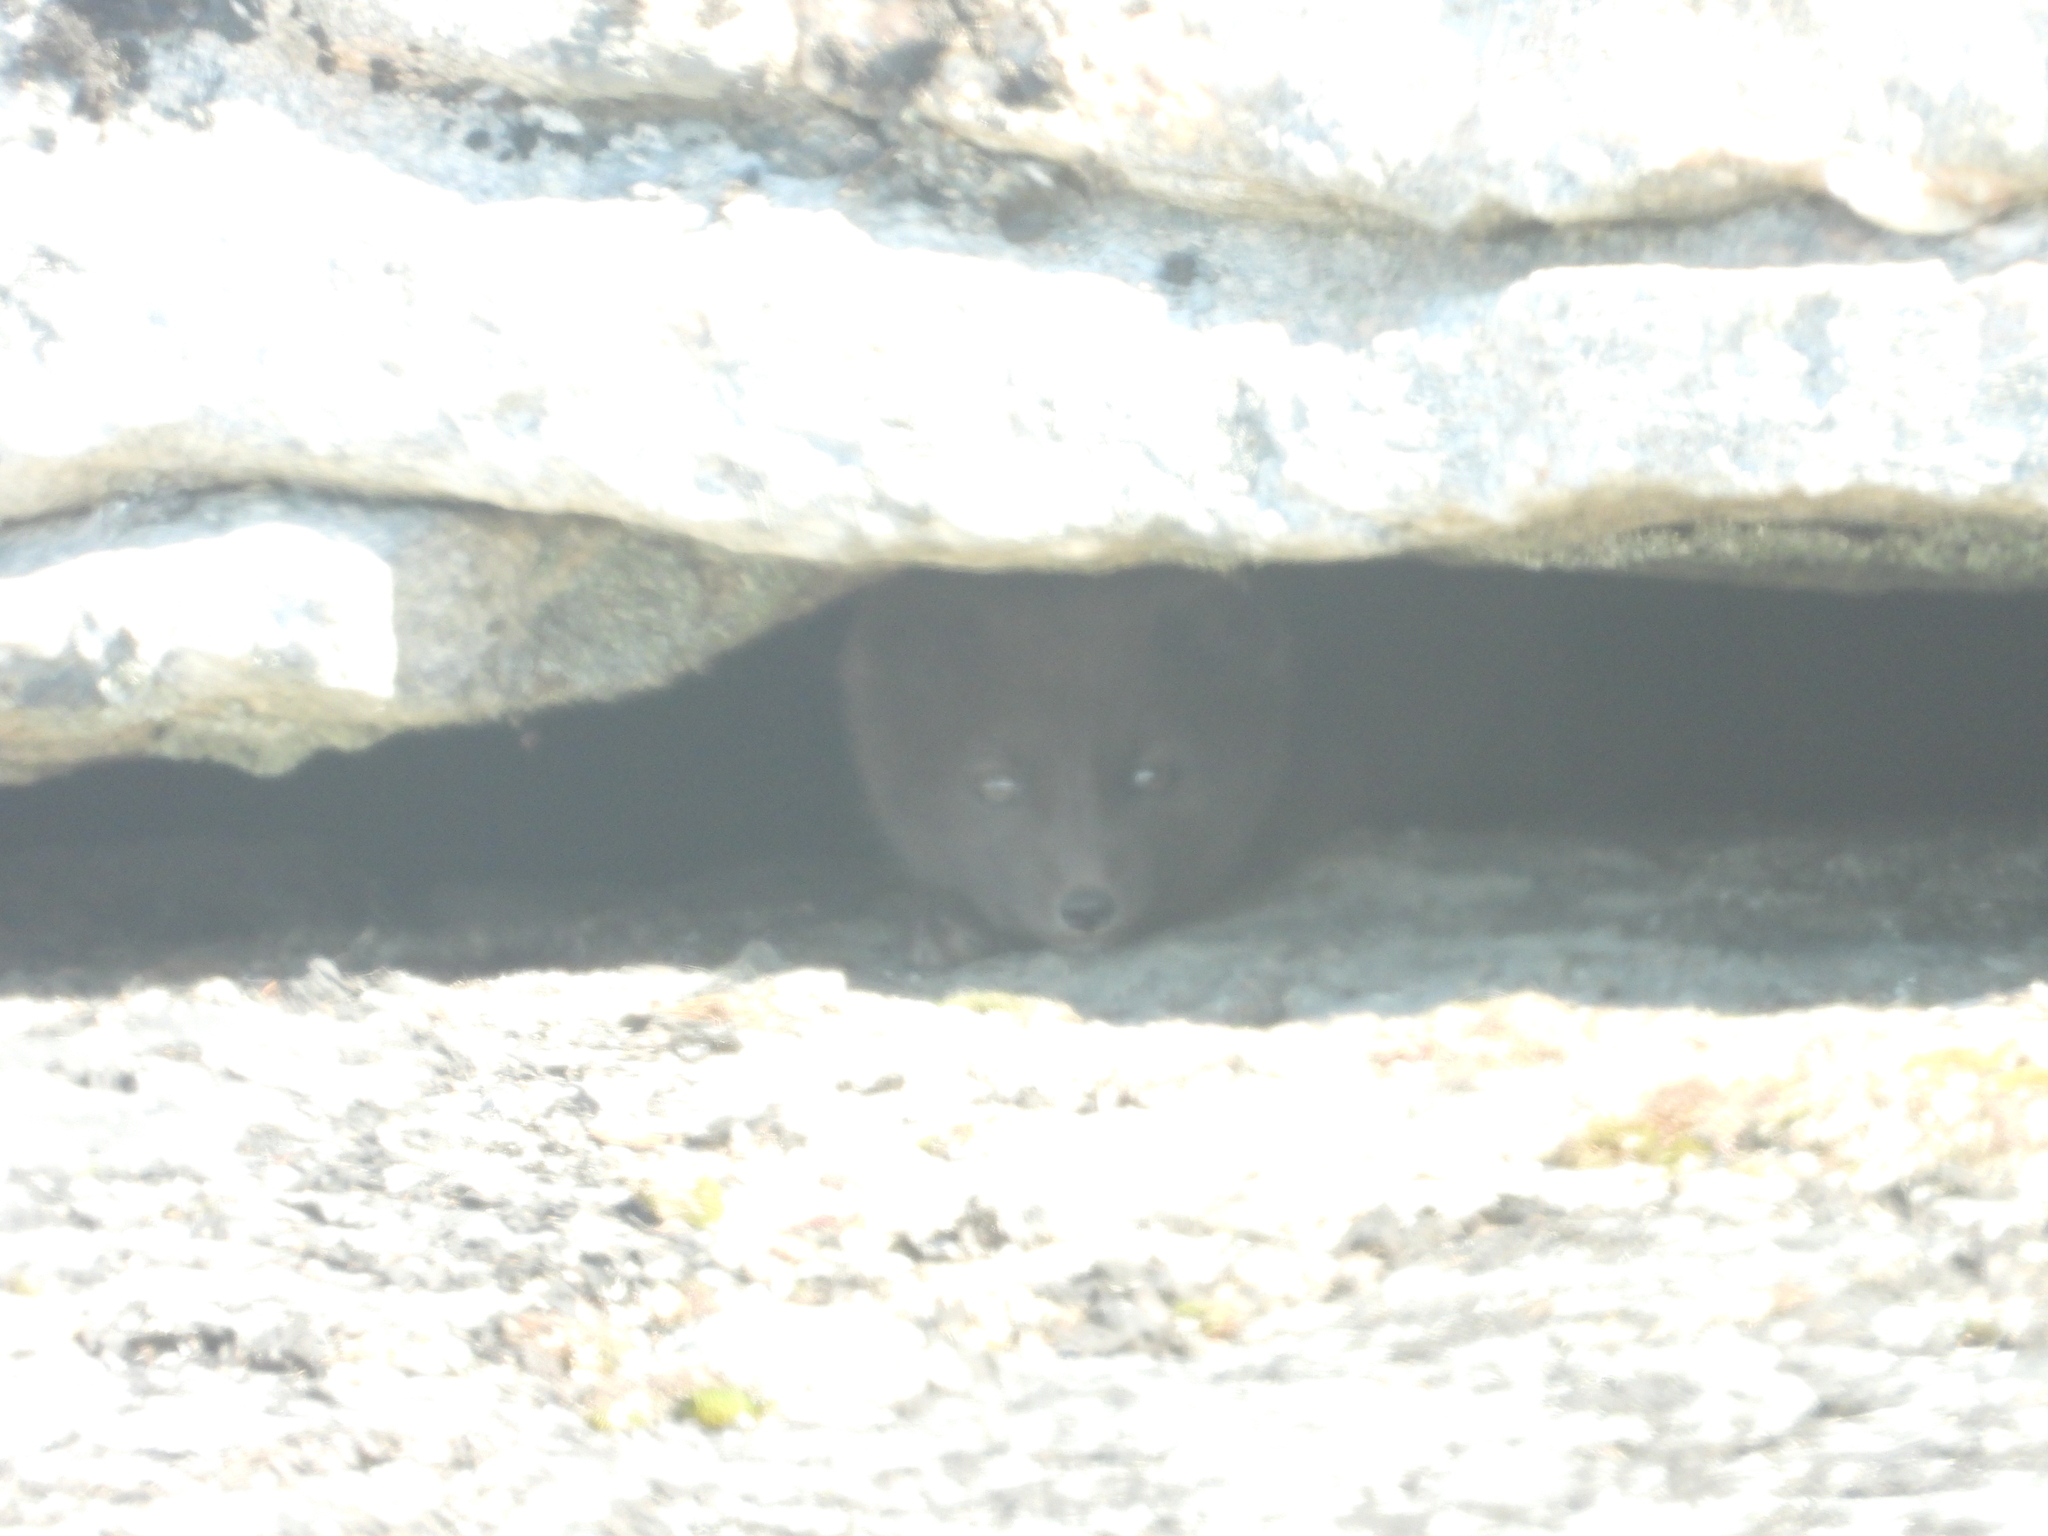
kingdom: Animalia
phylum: Chordata
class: Mammalia
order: Carnivora
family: Canidae
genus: Vulpes
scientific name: Vulpes lagopus
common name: Arctic fox
